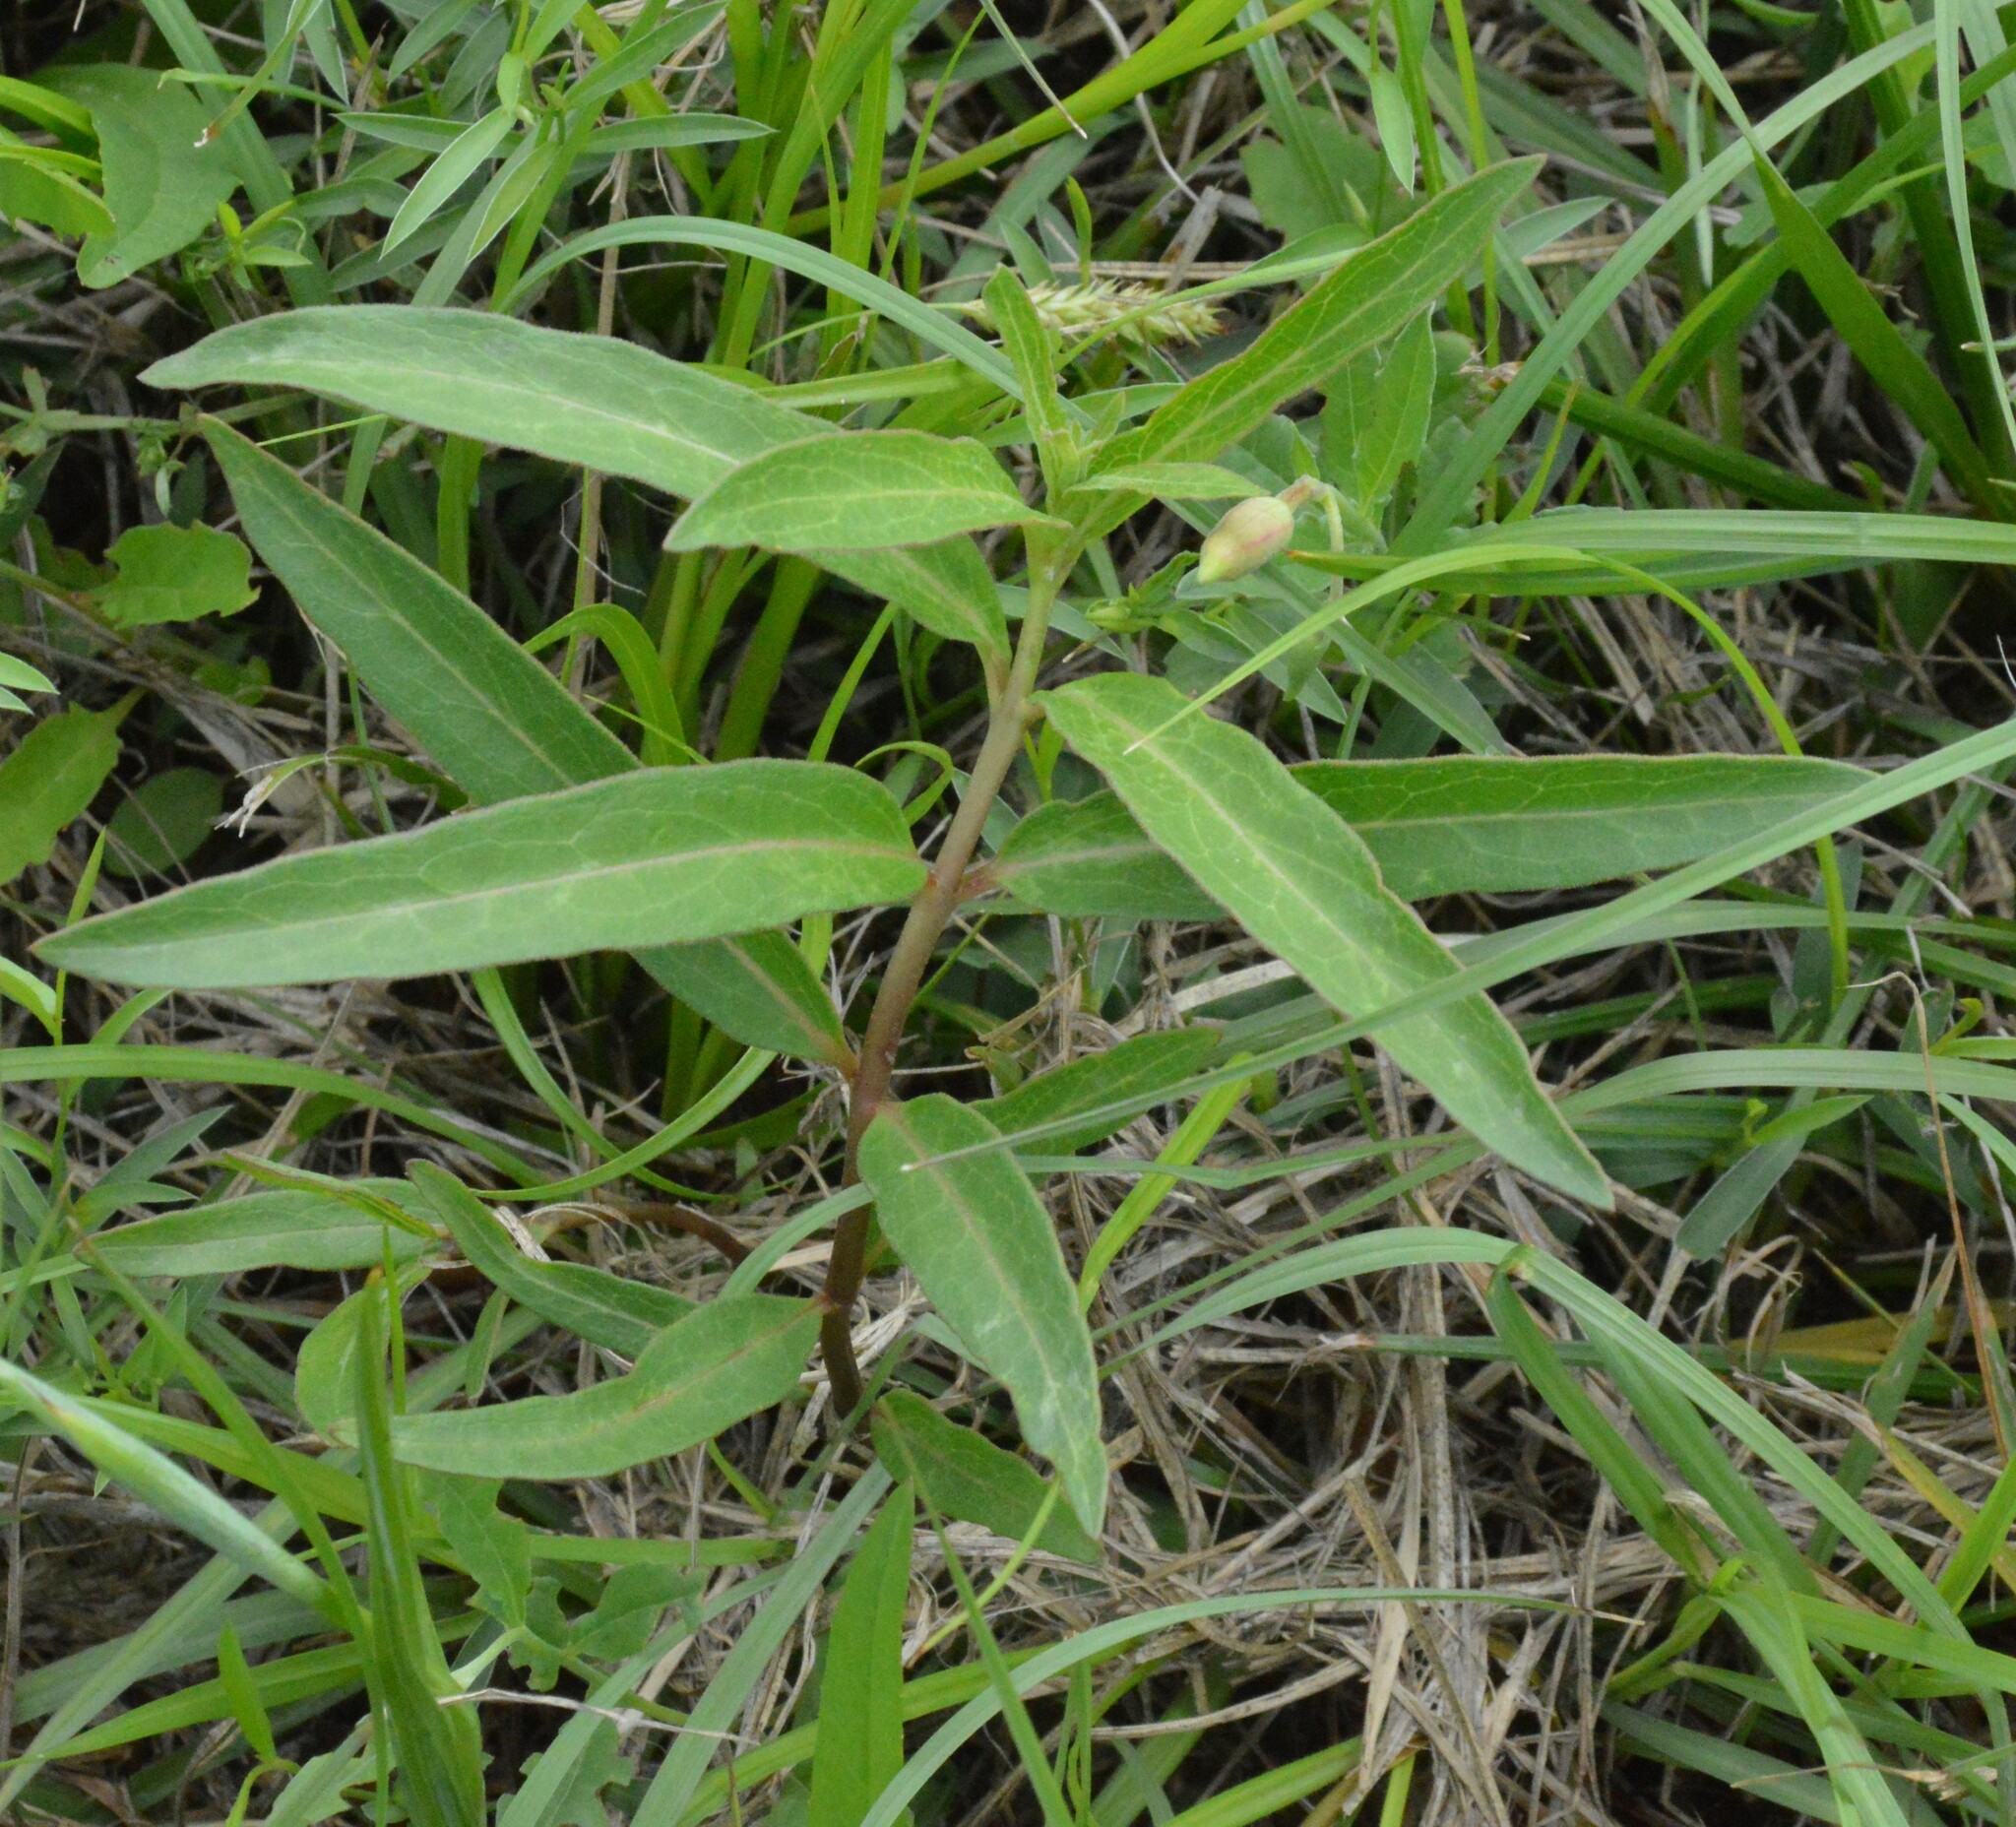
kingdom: Plantae
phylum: Tracheophyta
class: Magnoliopsida
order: Gentianales
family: Apocynaceae
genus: Asclepias
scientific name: Asclepias viridis
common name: Antelope-horns
